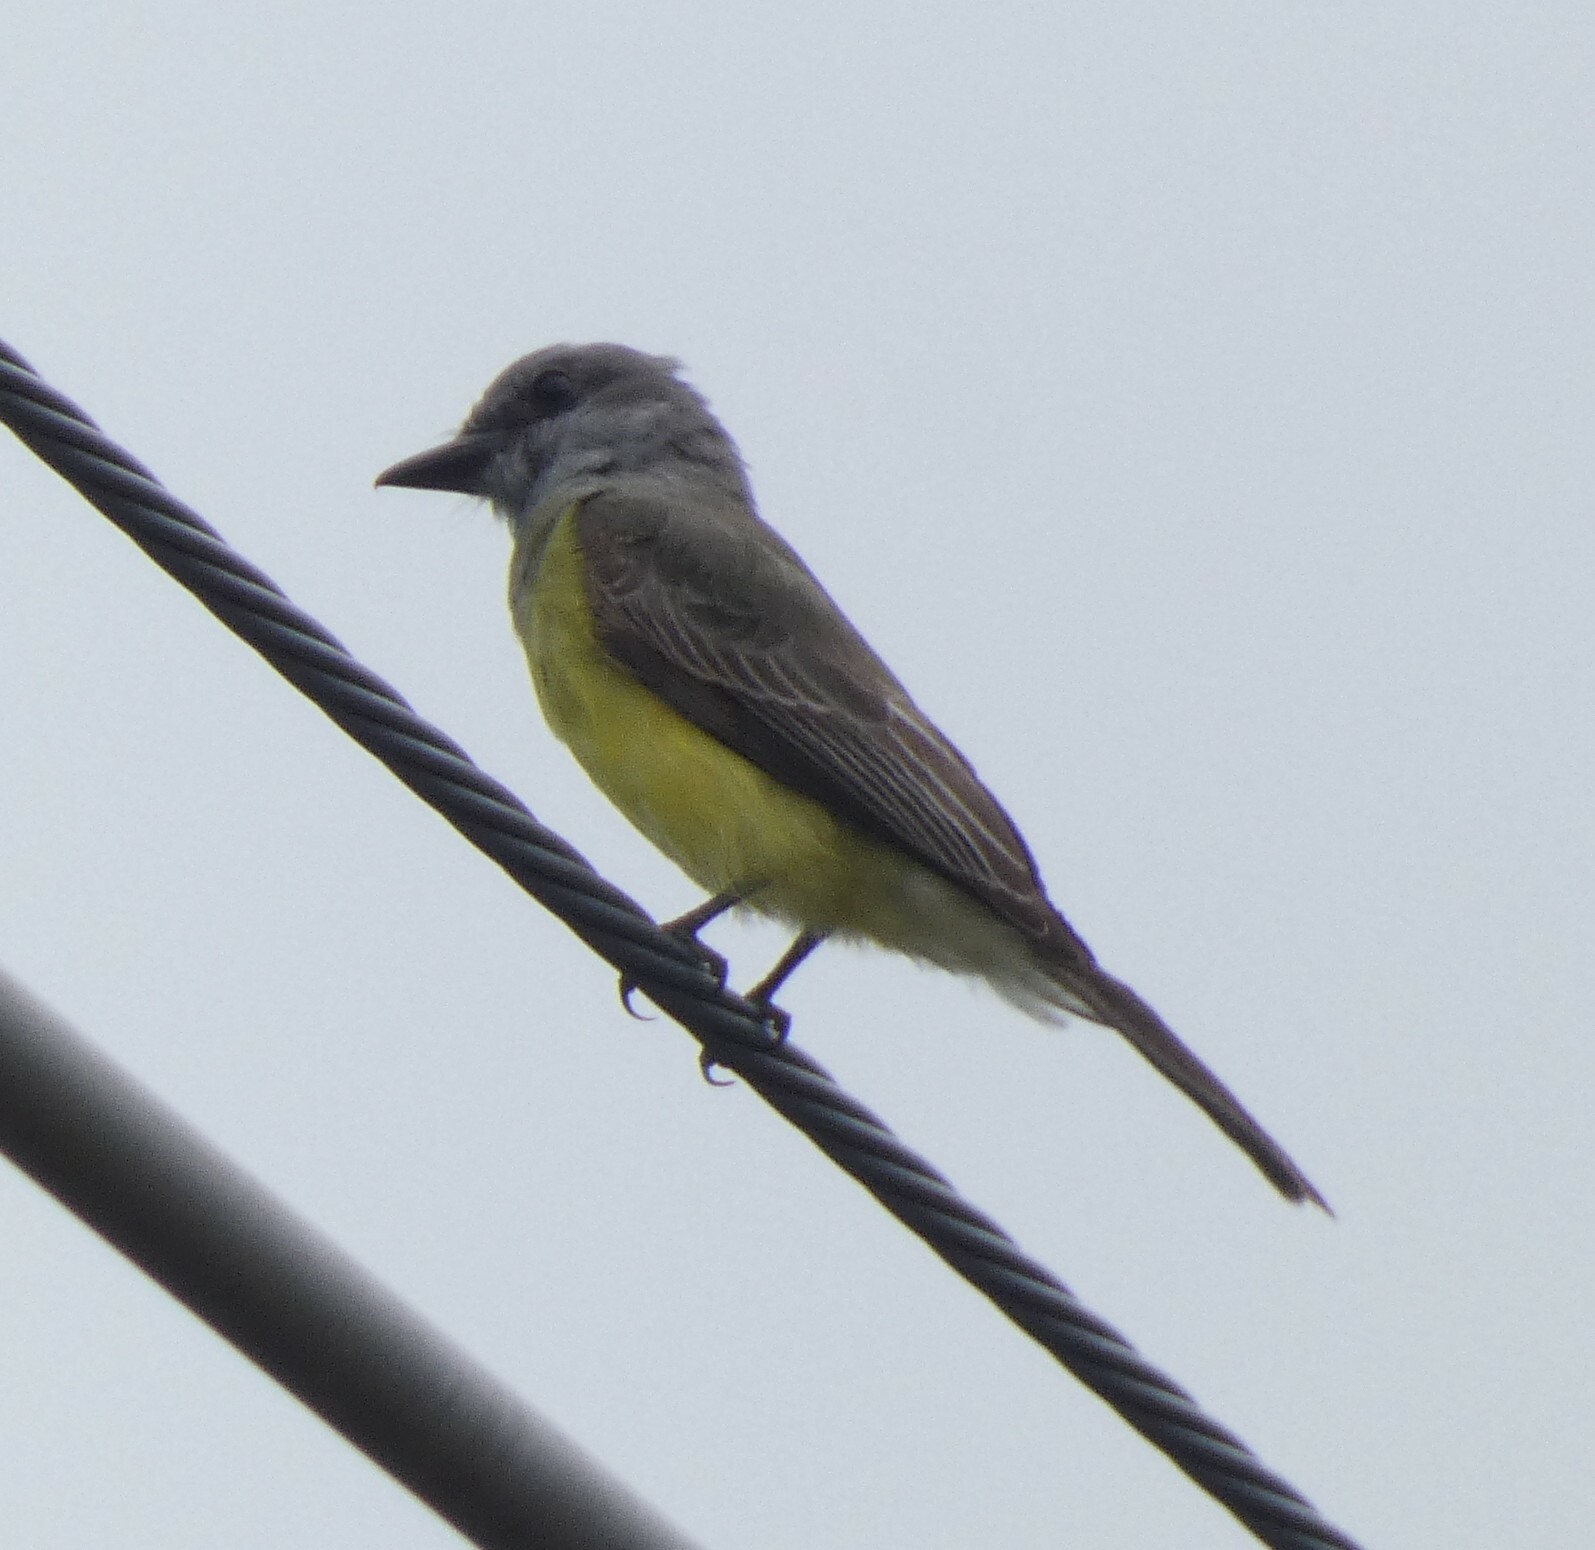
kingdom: Animalia
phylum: Chordata
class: Aves
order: Passeriformes
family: Tyrannidae
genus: Tyrannus
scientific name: Tyrannus melancholicus
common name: Tropical kingbird
